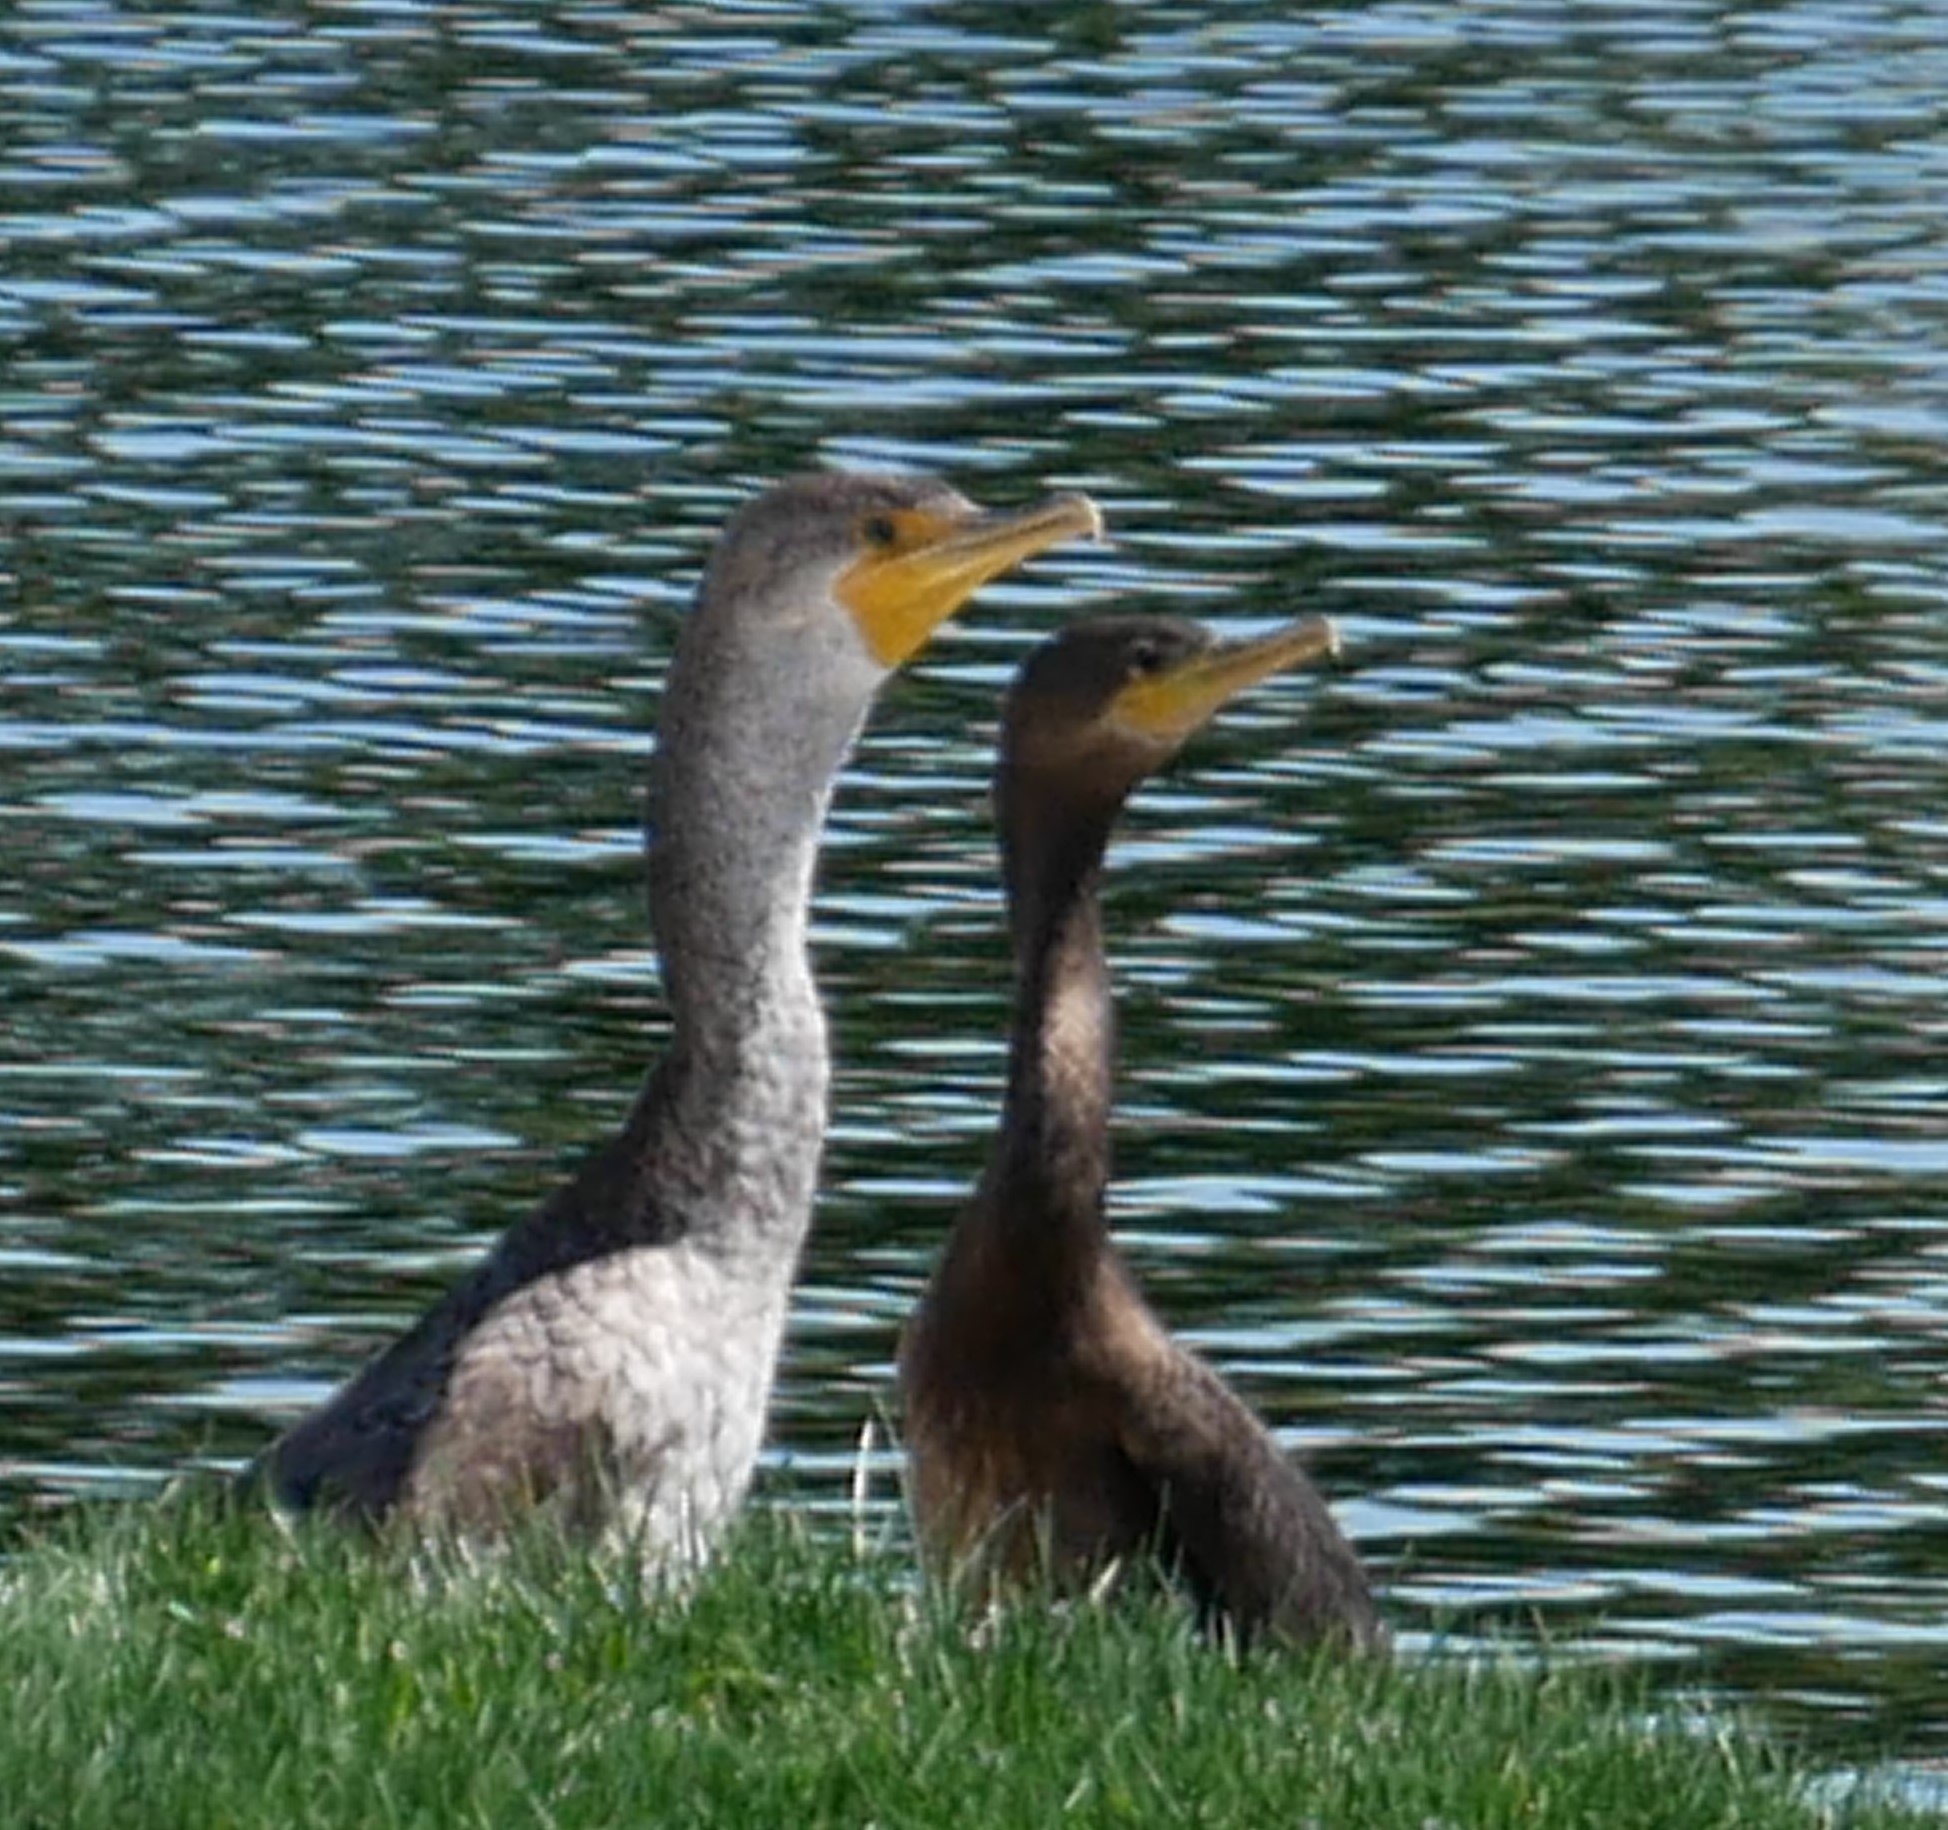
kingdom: Animalia
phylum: Chordata
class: Aves
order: Suliformes
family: Phalacrocoracidae
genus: Phalacrocorax
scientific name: Phalacrocorax auritus
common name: Double-crested cormorant
